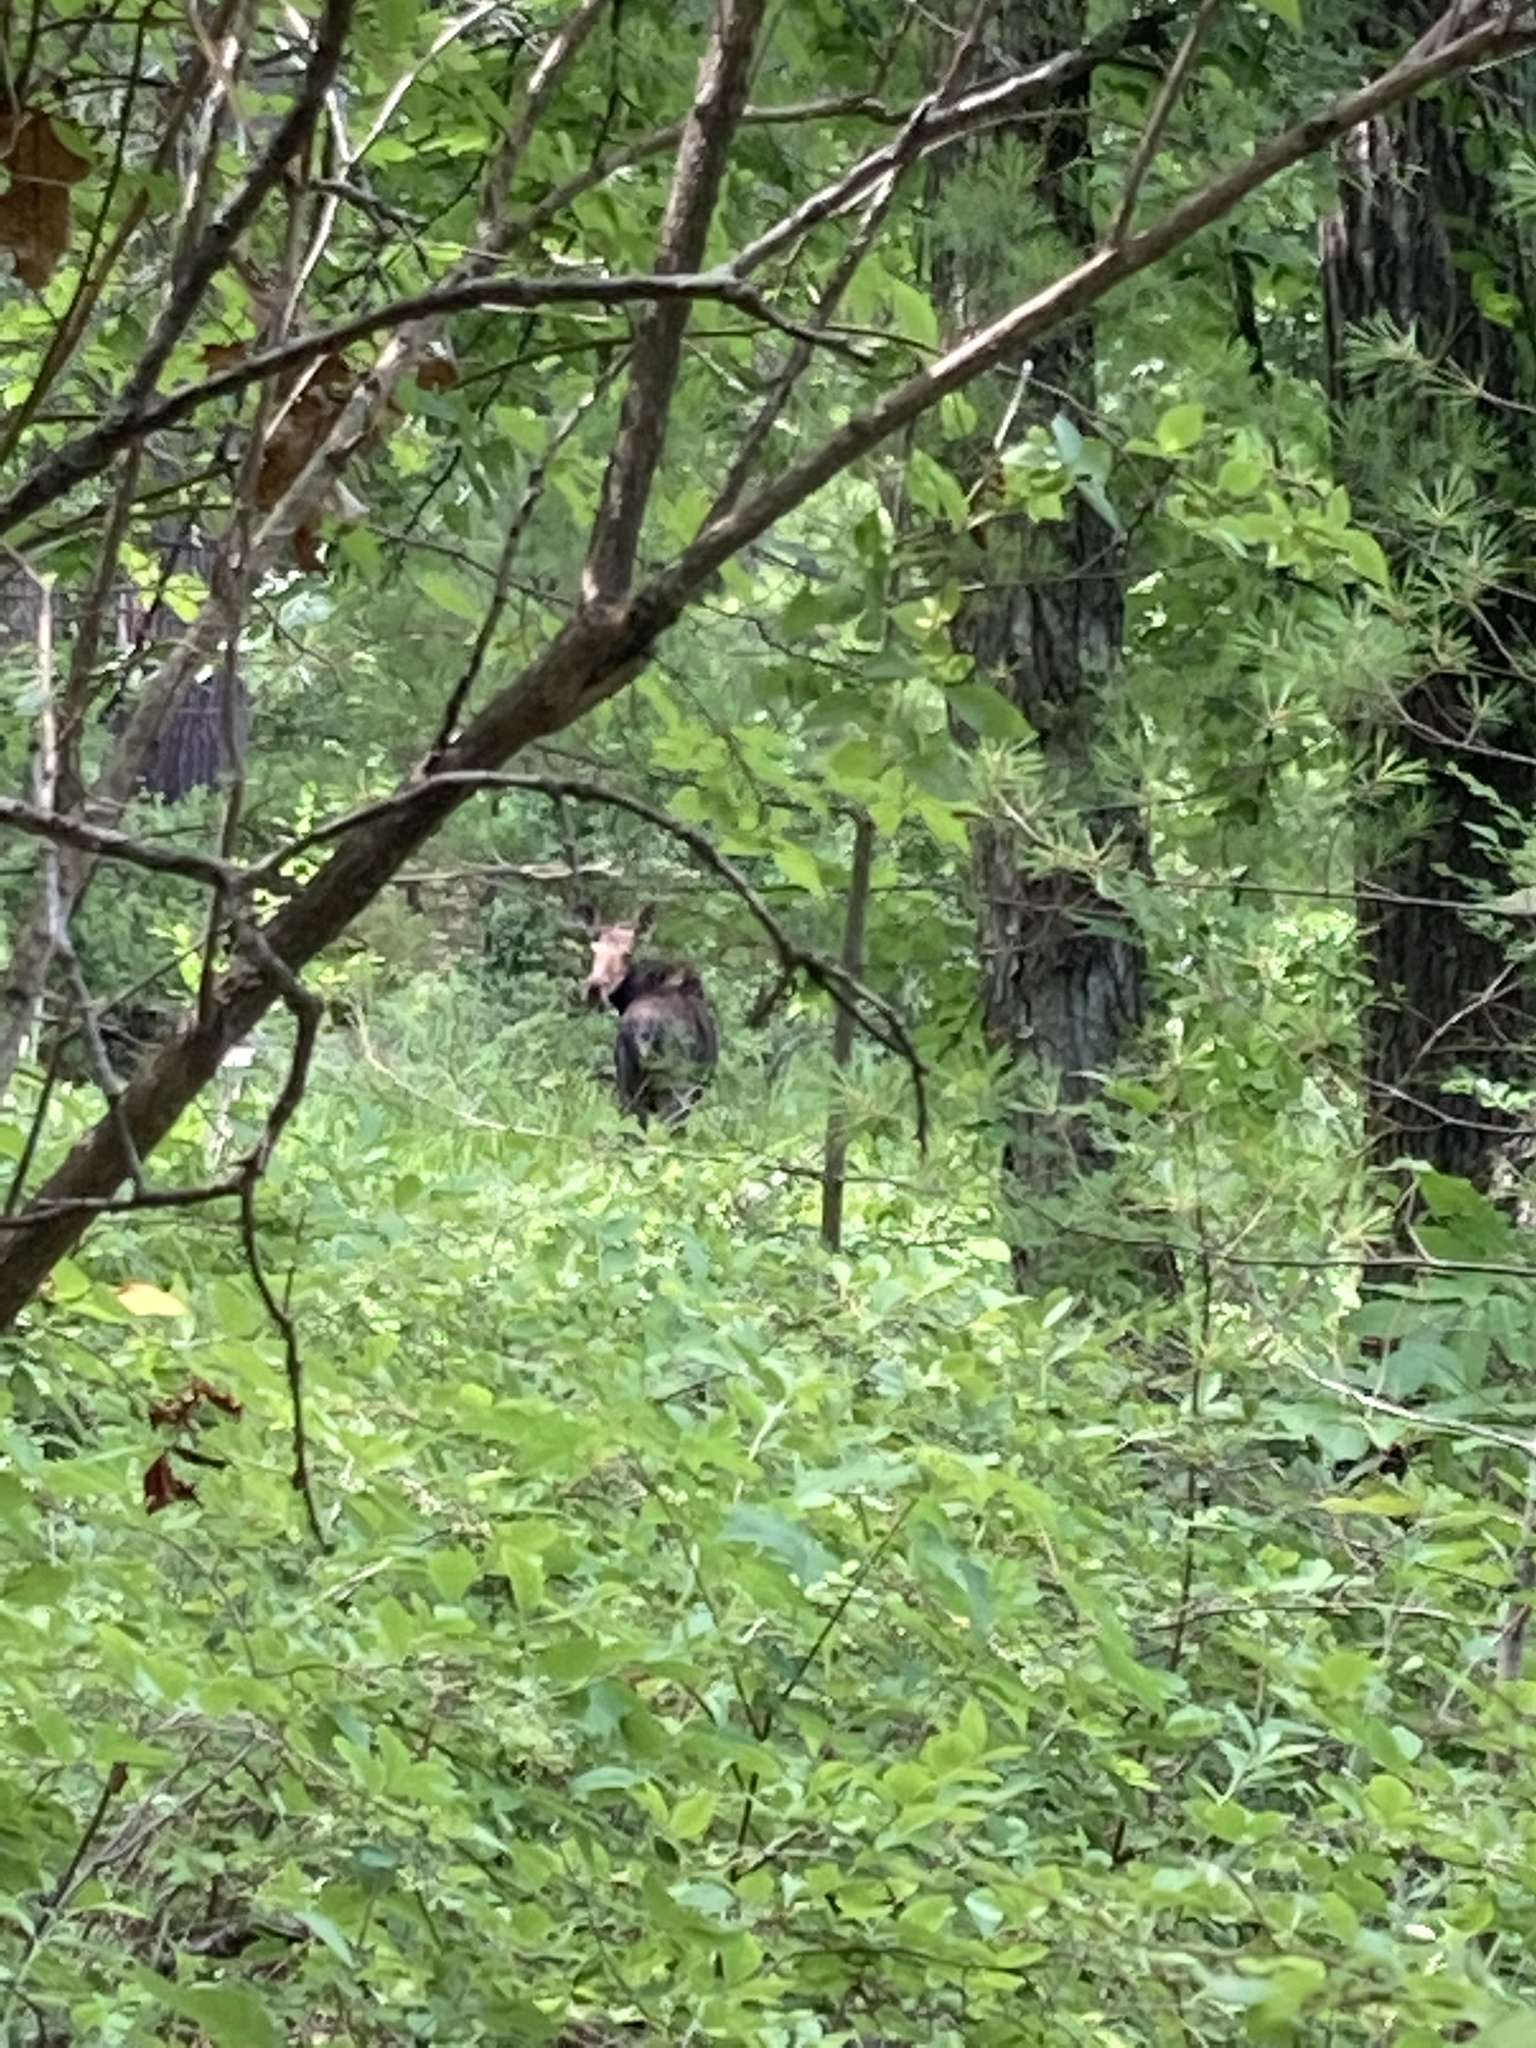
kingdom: Animalia
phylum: Chordata
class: Mammalia
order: Artiodactyla
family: Cervidae
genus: Alces
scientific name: Alces alces
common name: Moose
